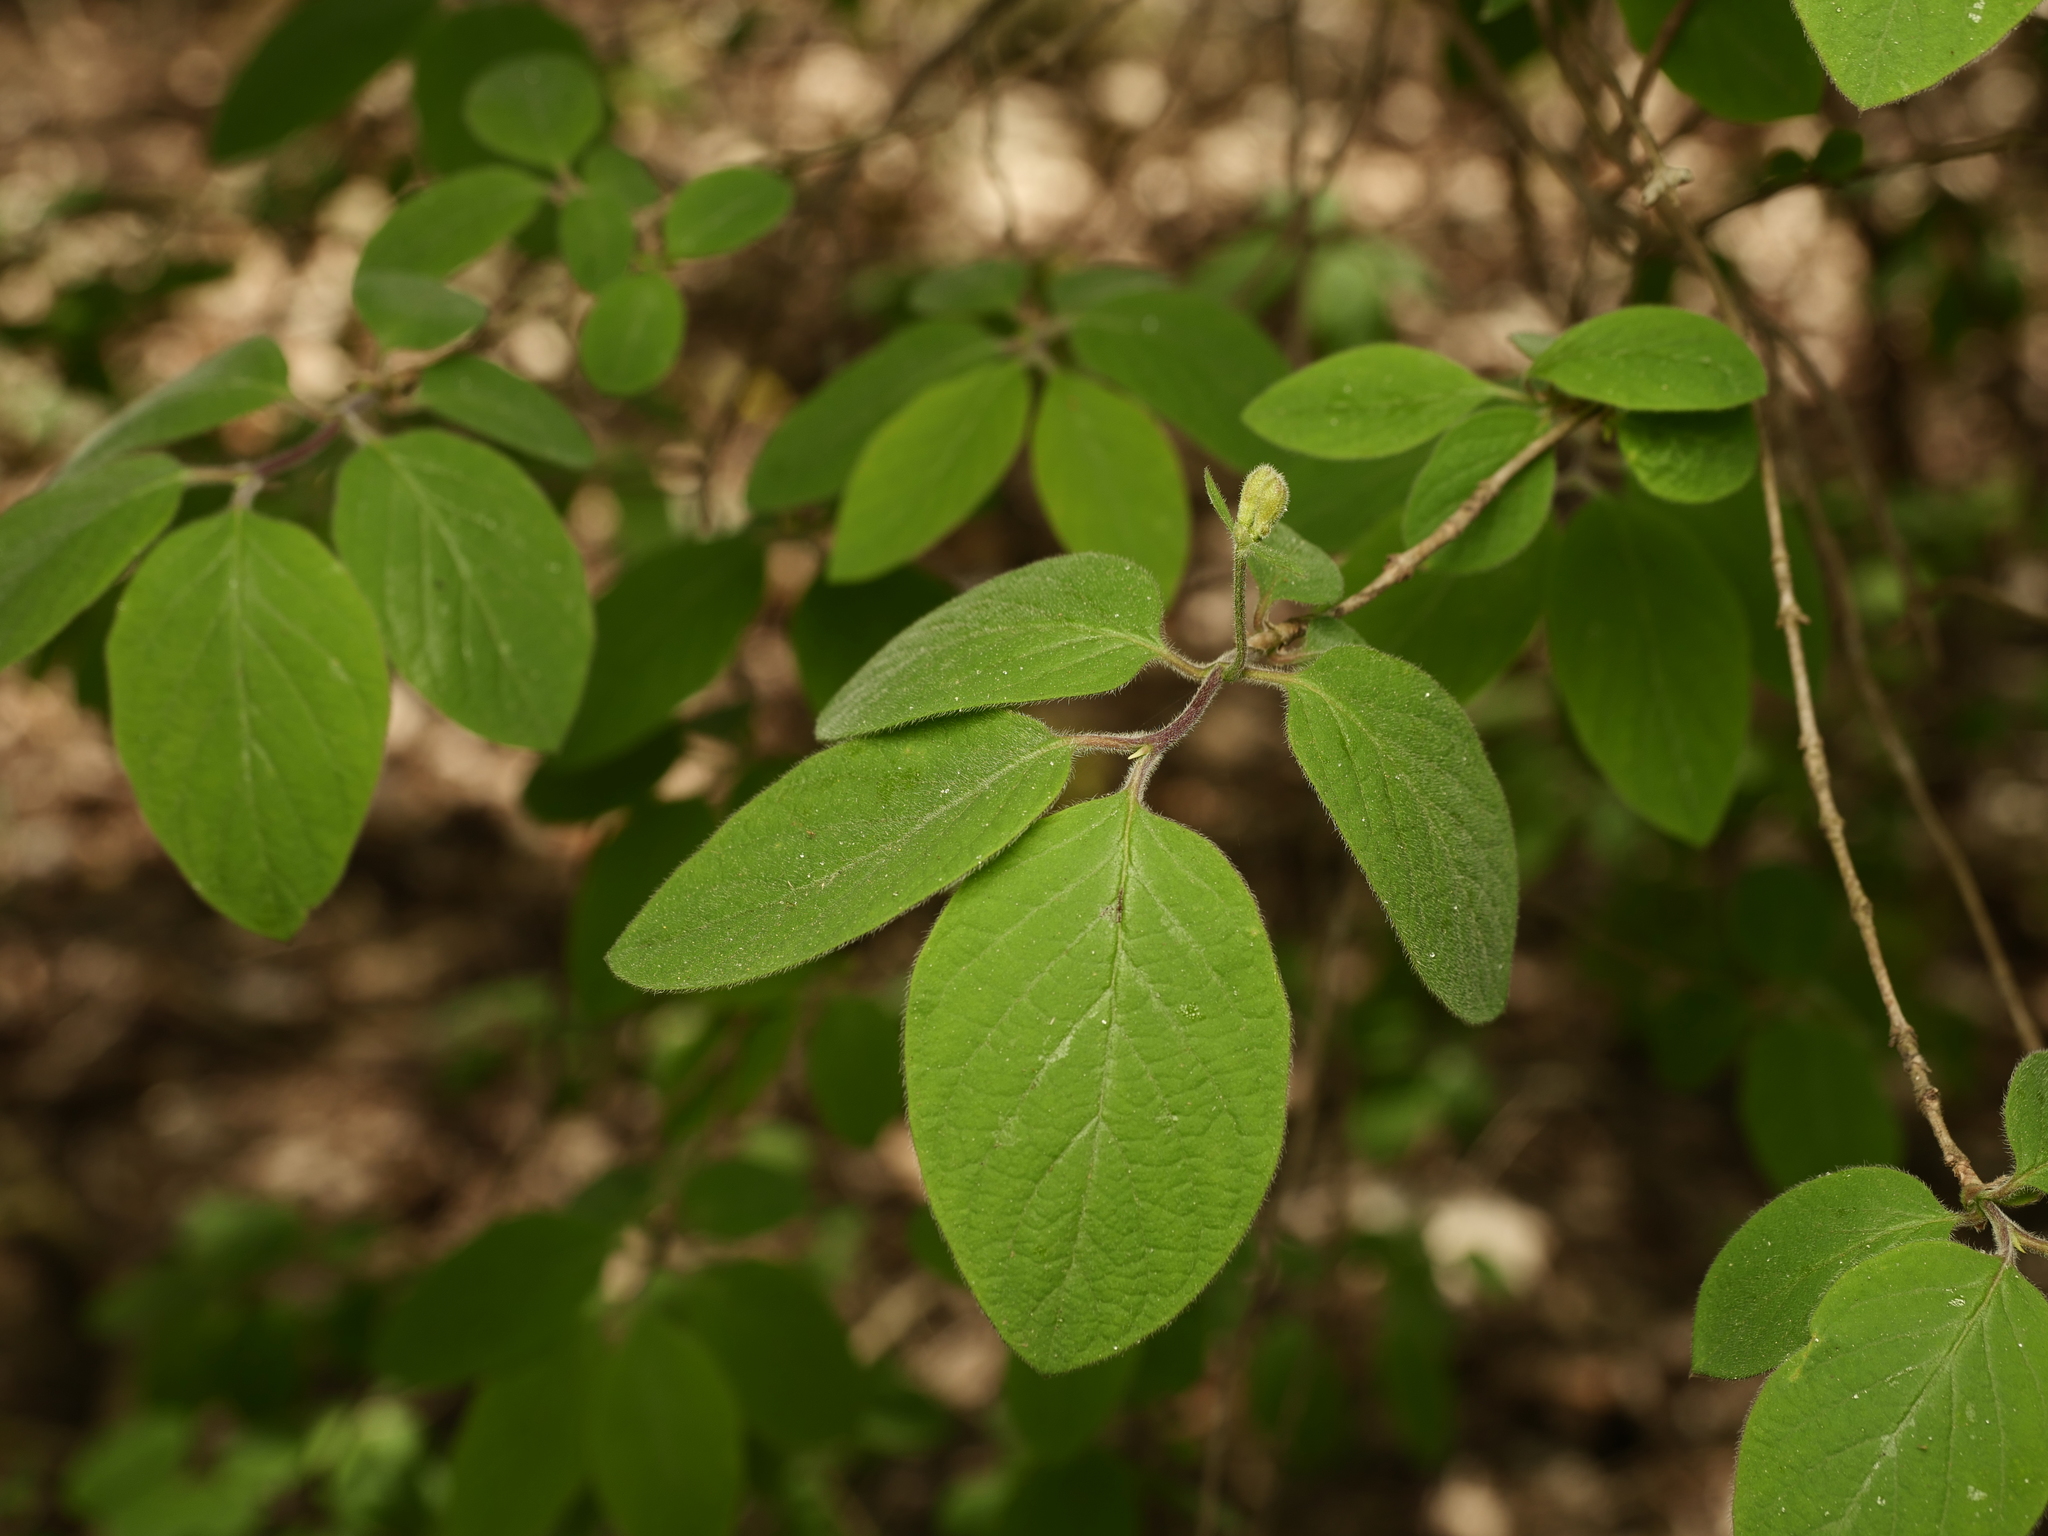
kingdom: Plantae
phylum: Tracheophyta
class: Magnoliopsida
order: Dipsacales
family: Caprifoliaceae
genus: Lonicera
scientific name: Lonicera xylosteum
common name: Fly honeysuckle
